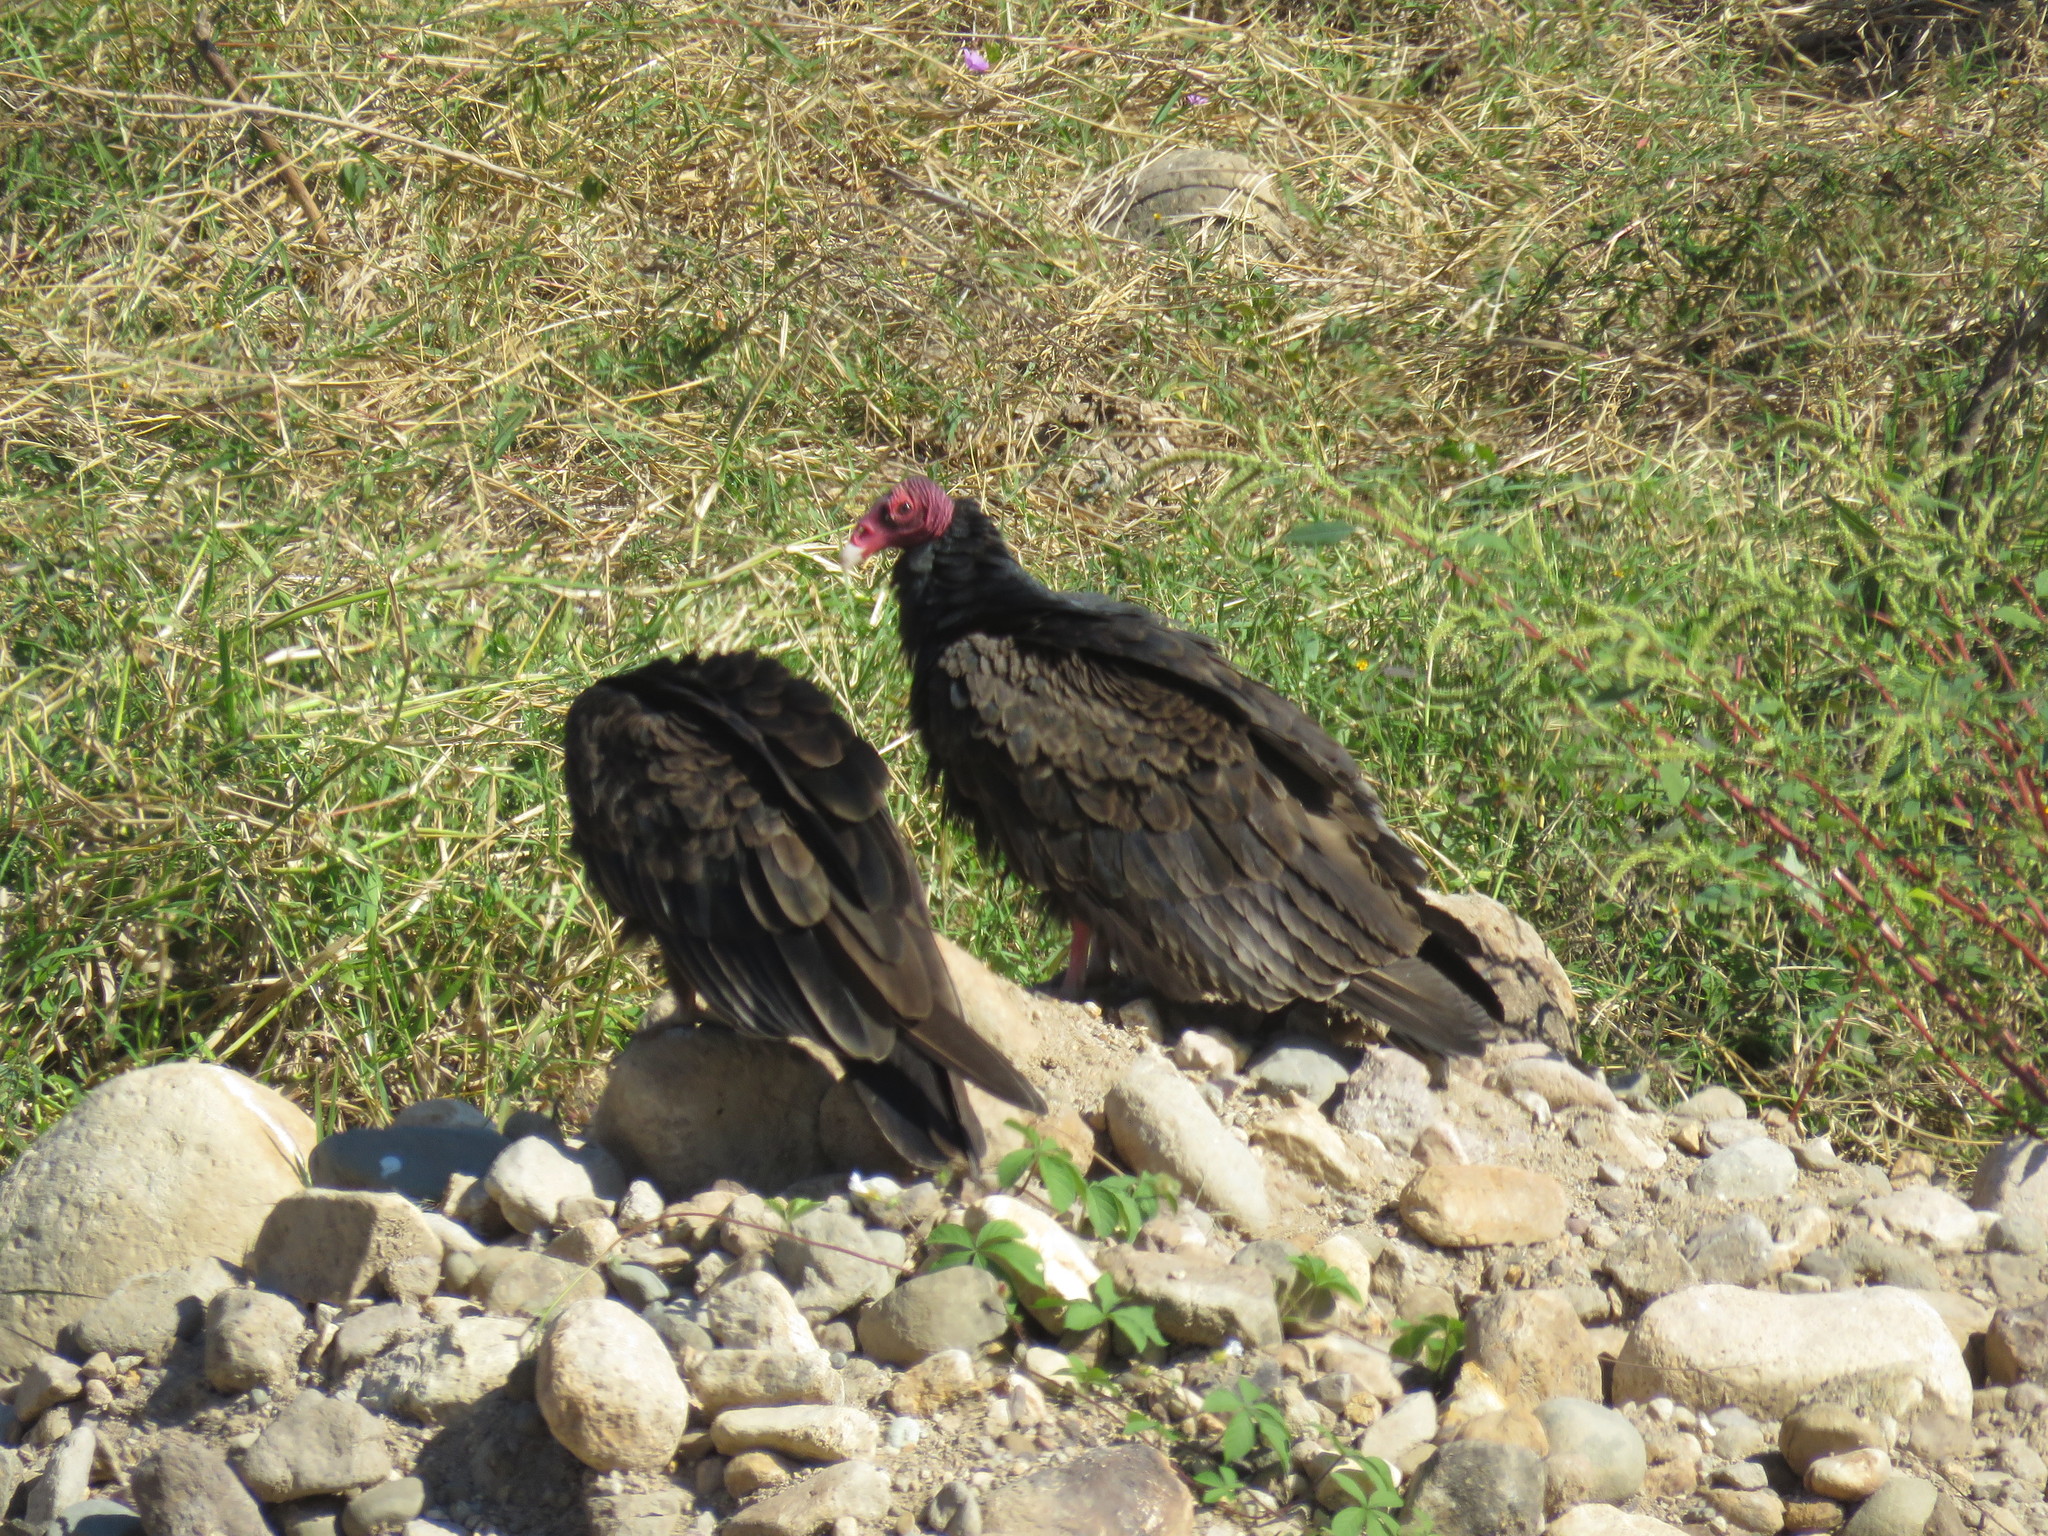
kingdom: Animalia
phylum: Chordata
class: Aves
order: Accipitriformes
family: Cathartidae
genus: Cathartes
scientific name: Cathartes aura
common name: Turkey vulture
